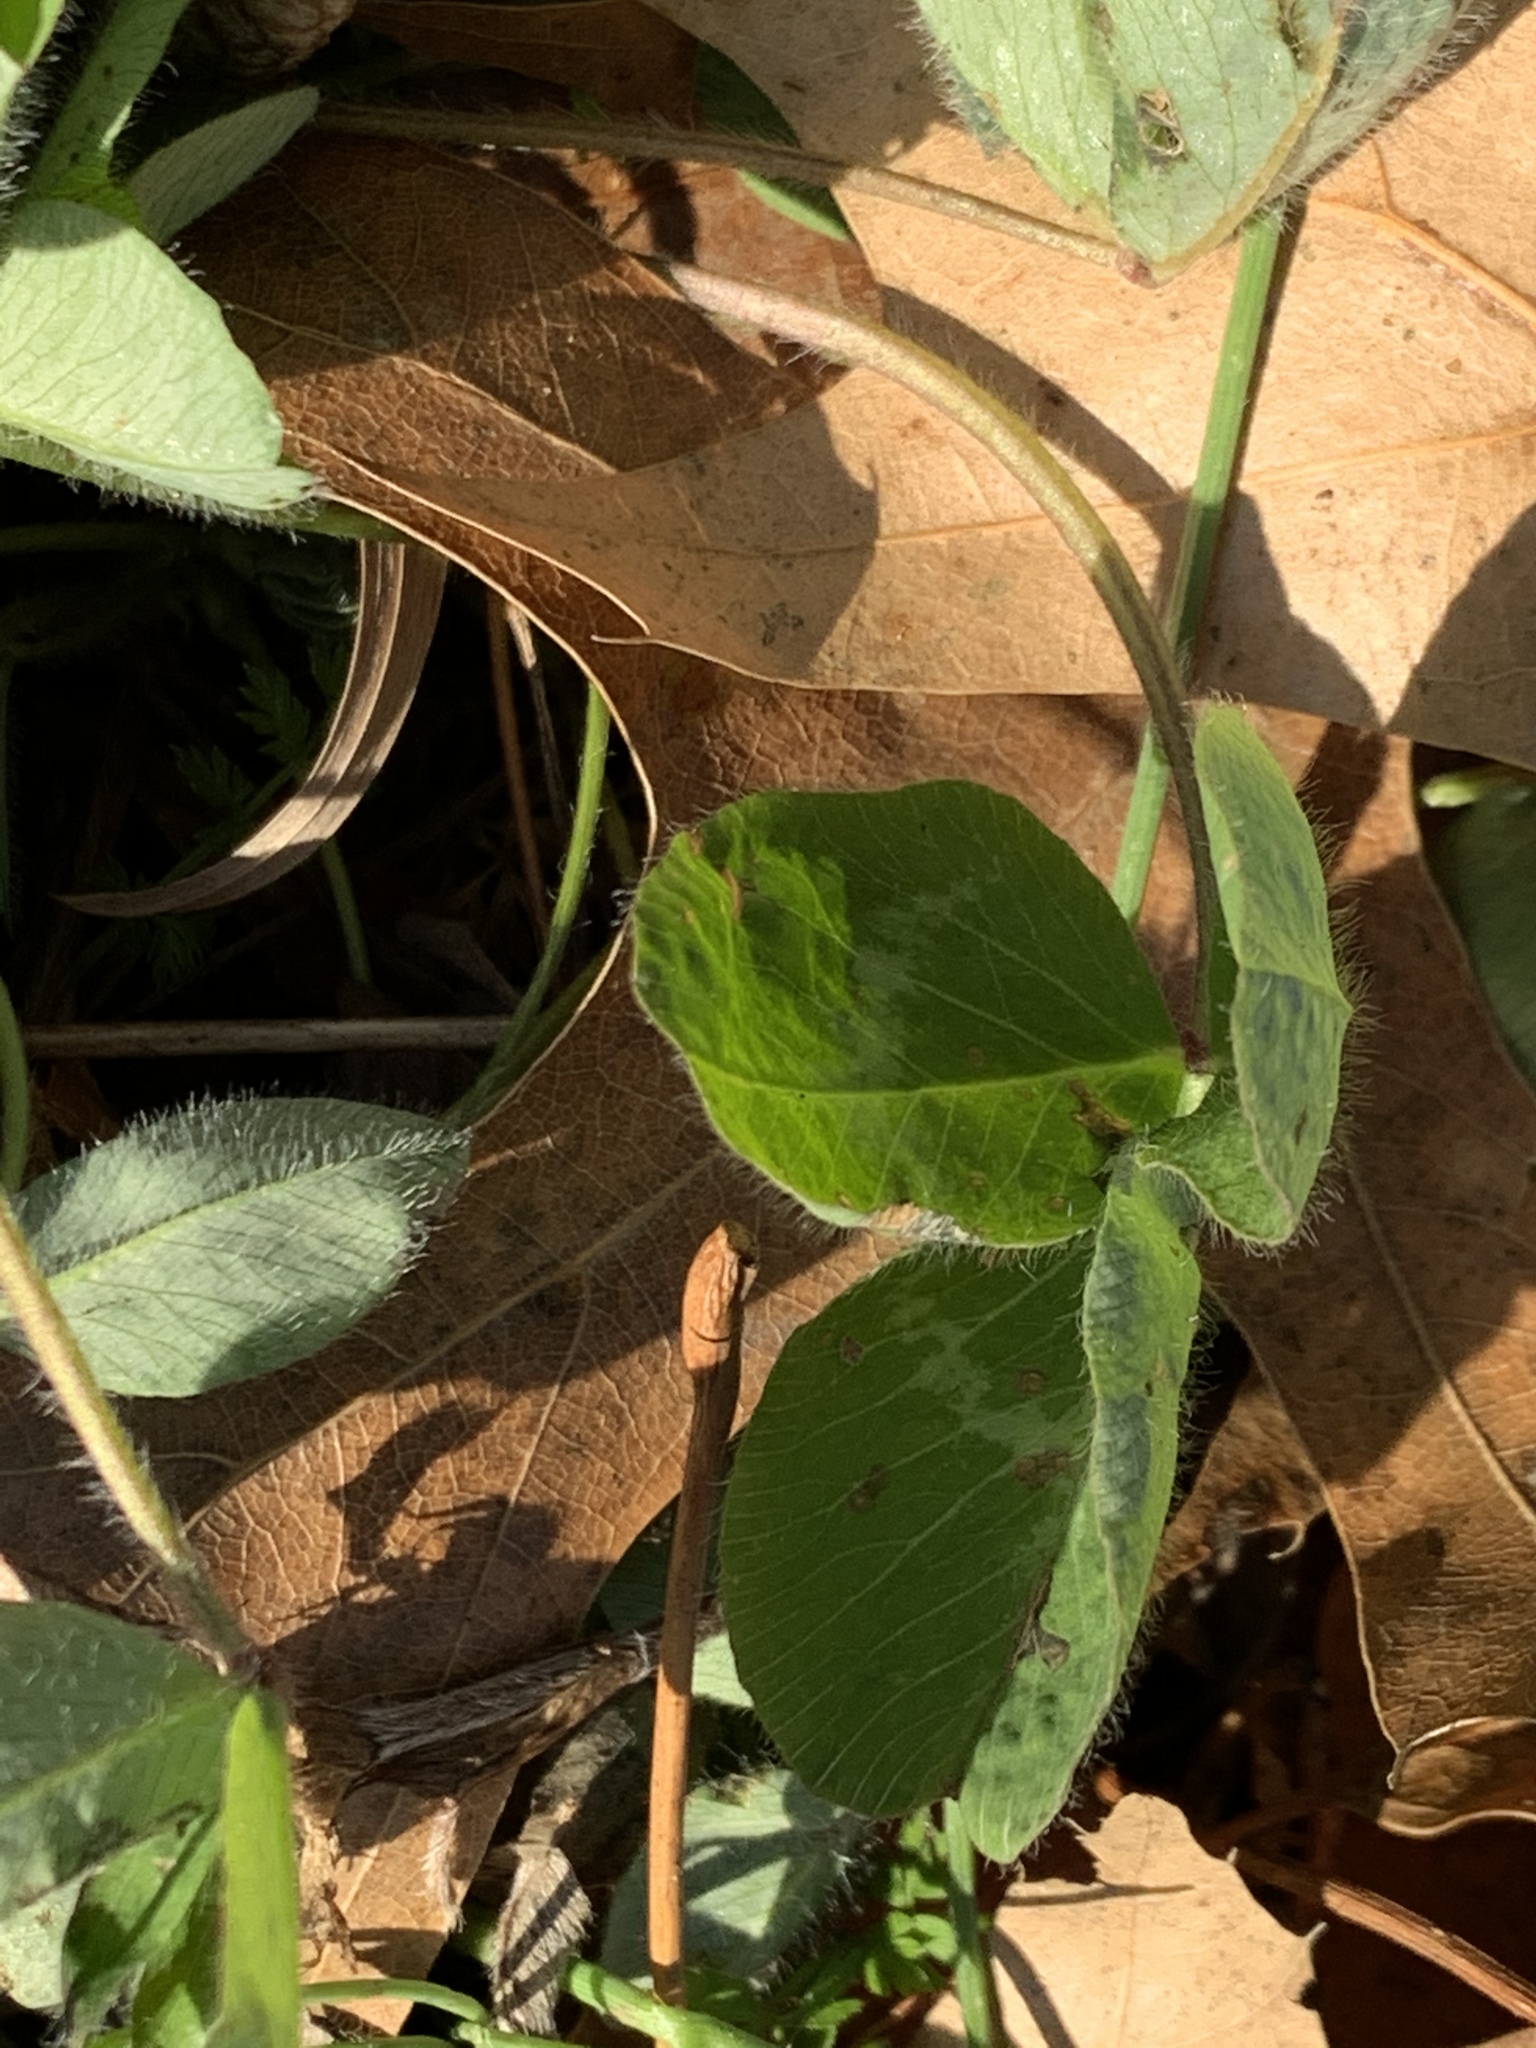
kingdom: Plantae
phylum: Tracheophyta
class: Magnoliopsida
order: Fabales
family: Fabaceae
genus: Trifolium
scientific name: Trifolium pratense
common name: Red clover
